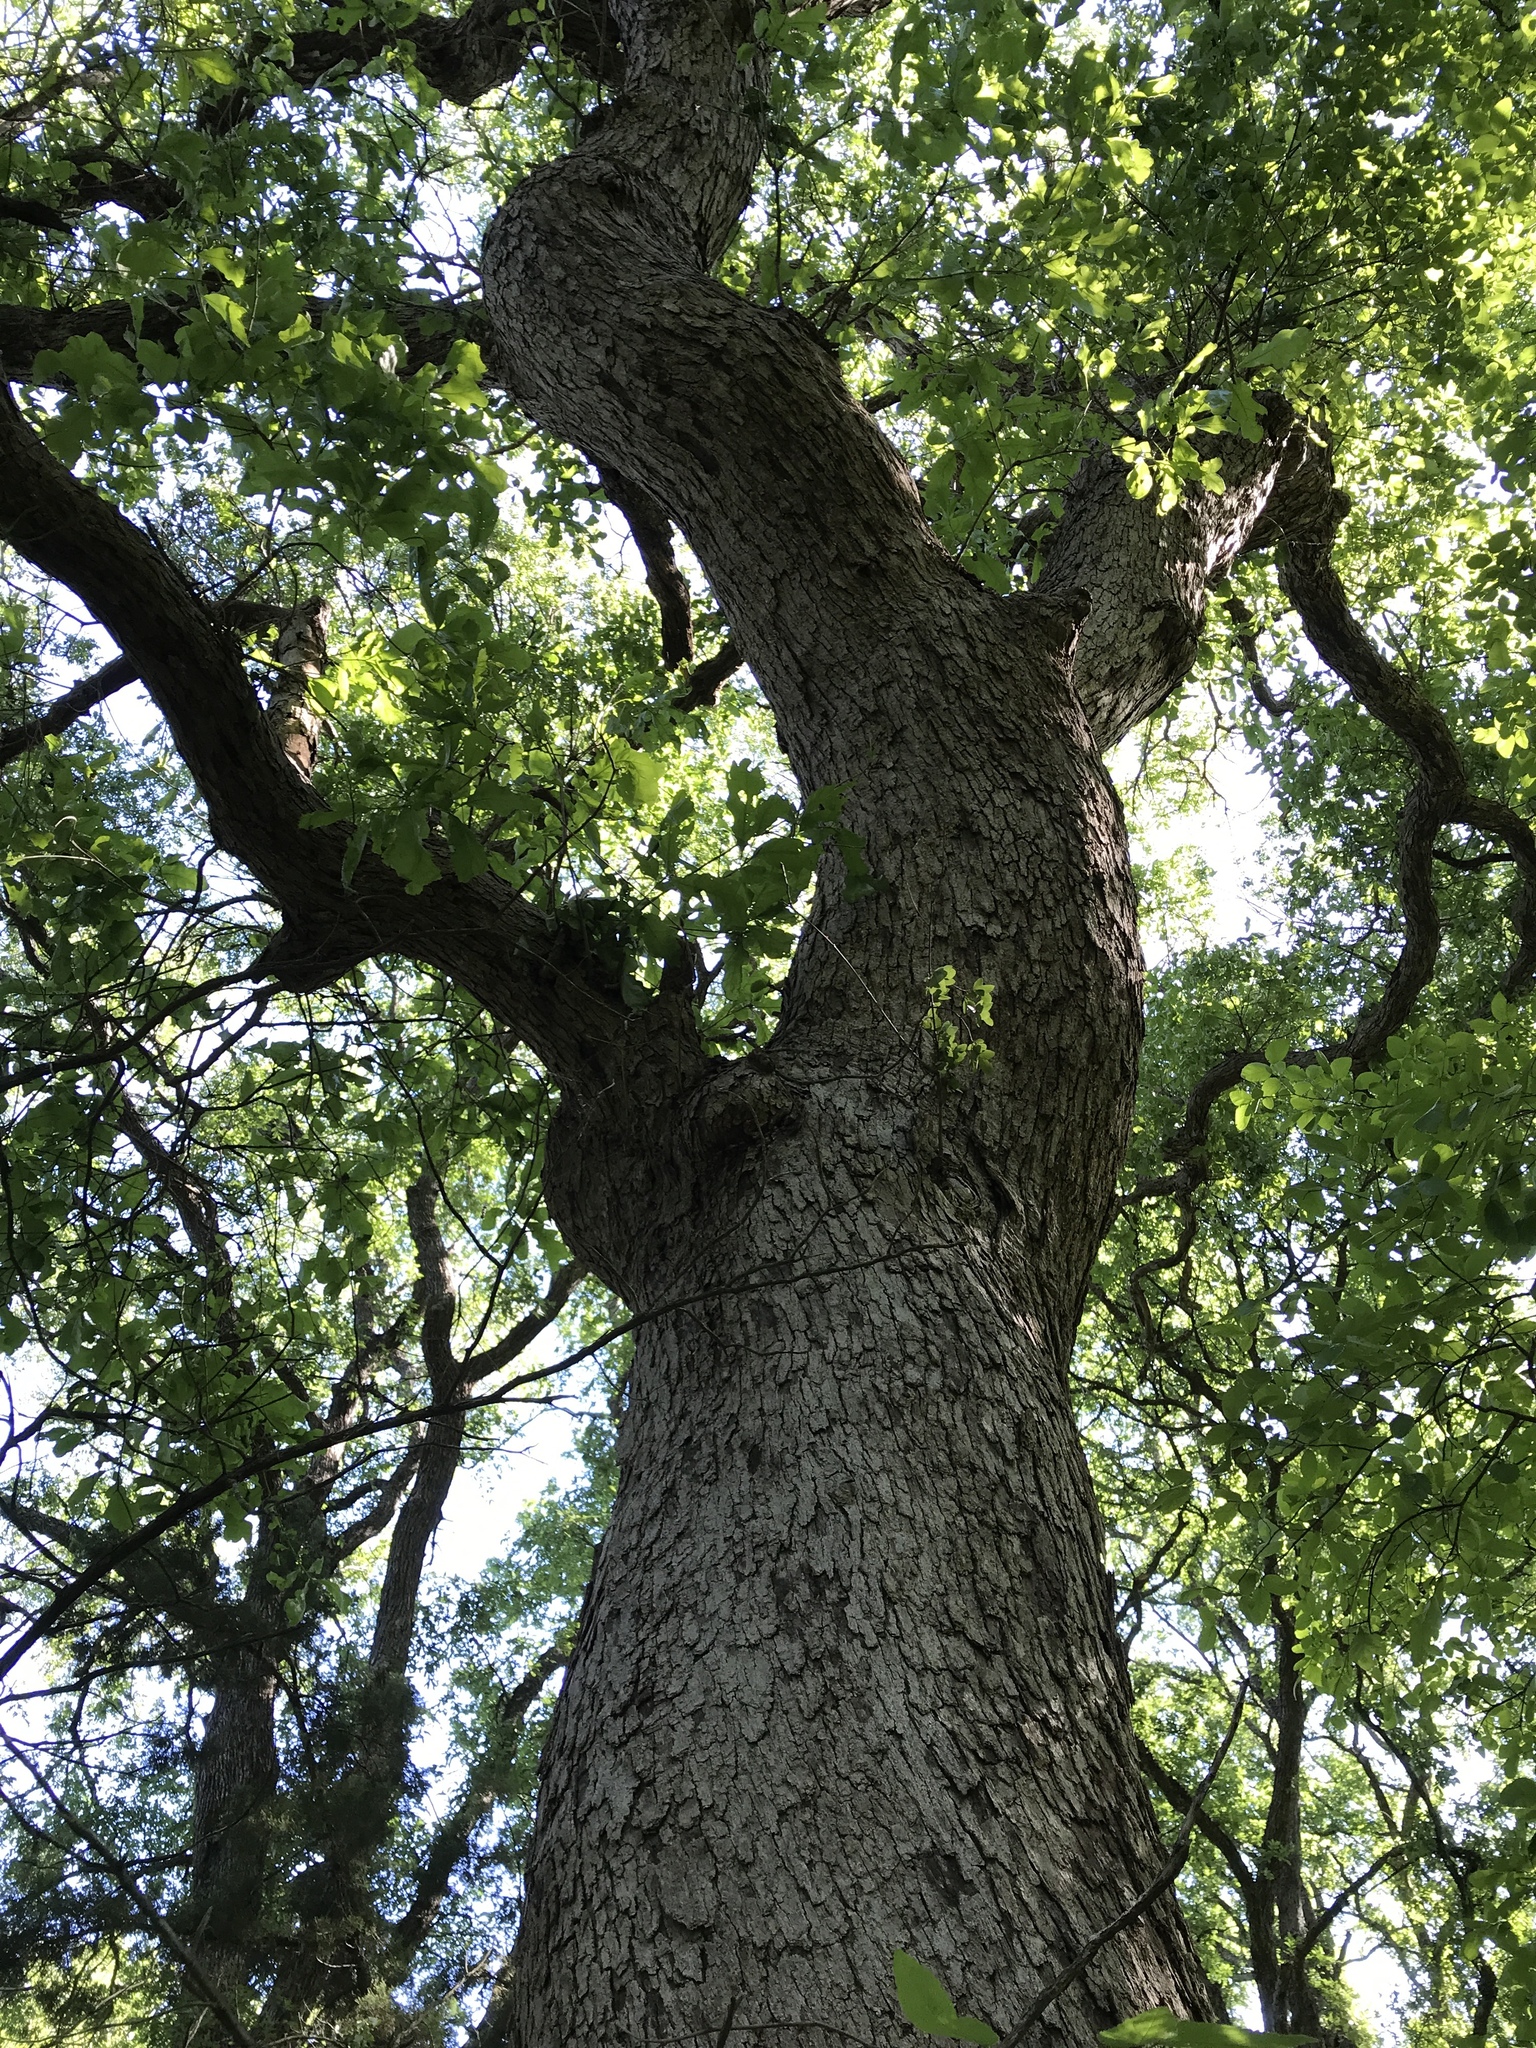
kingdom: Plantae
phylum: Tracheophyta
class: Magnoliopsida
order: Fagales
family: Fagaceae
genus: Quercus
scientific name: Quercus sinuata
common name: Durand oak
